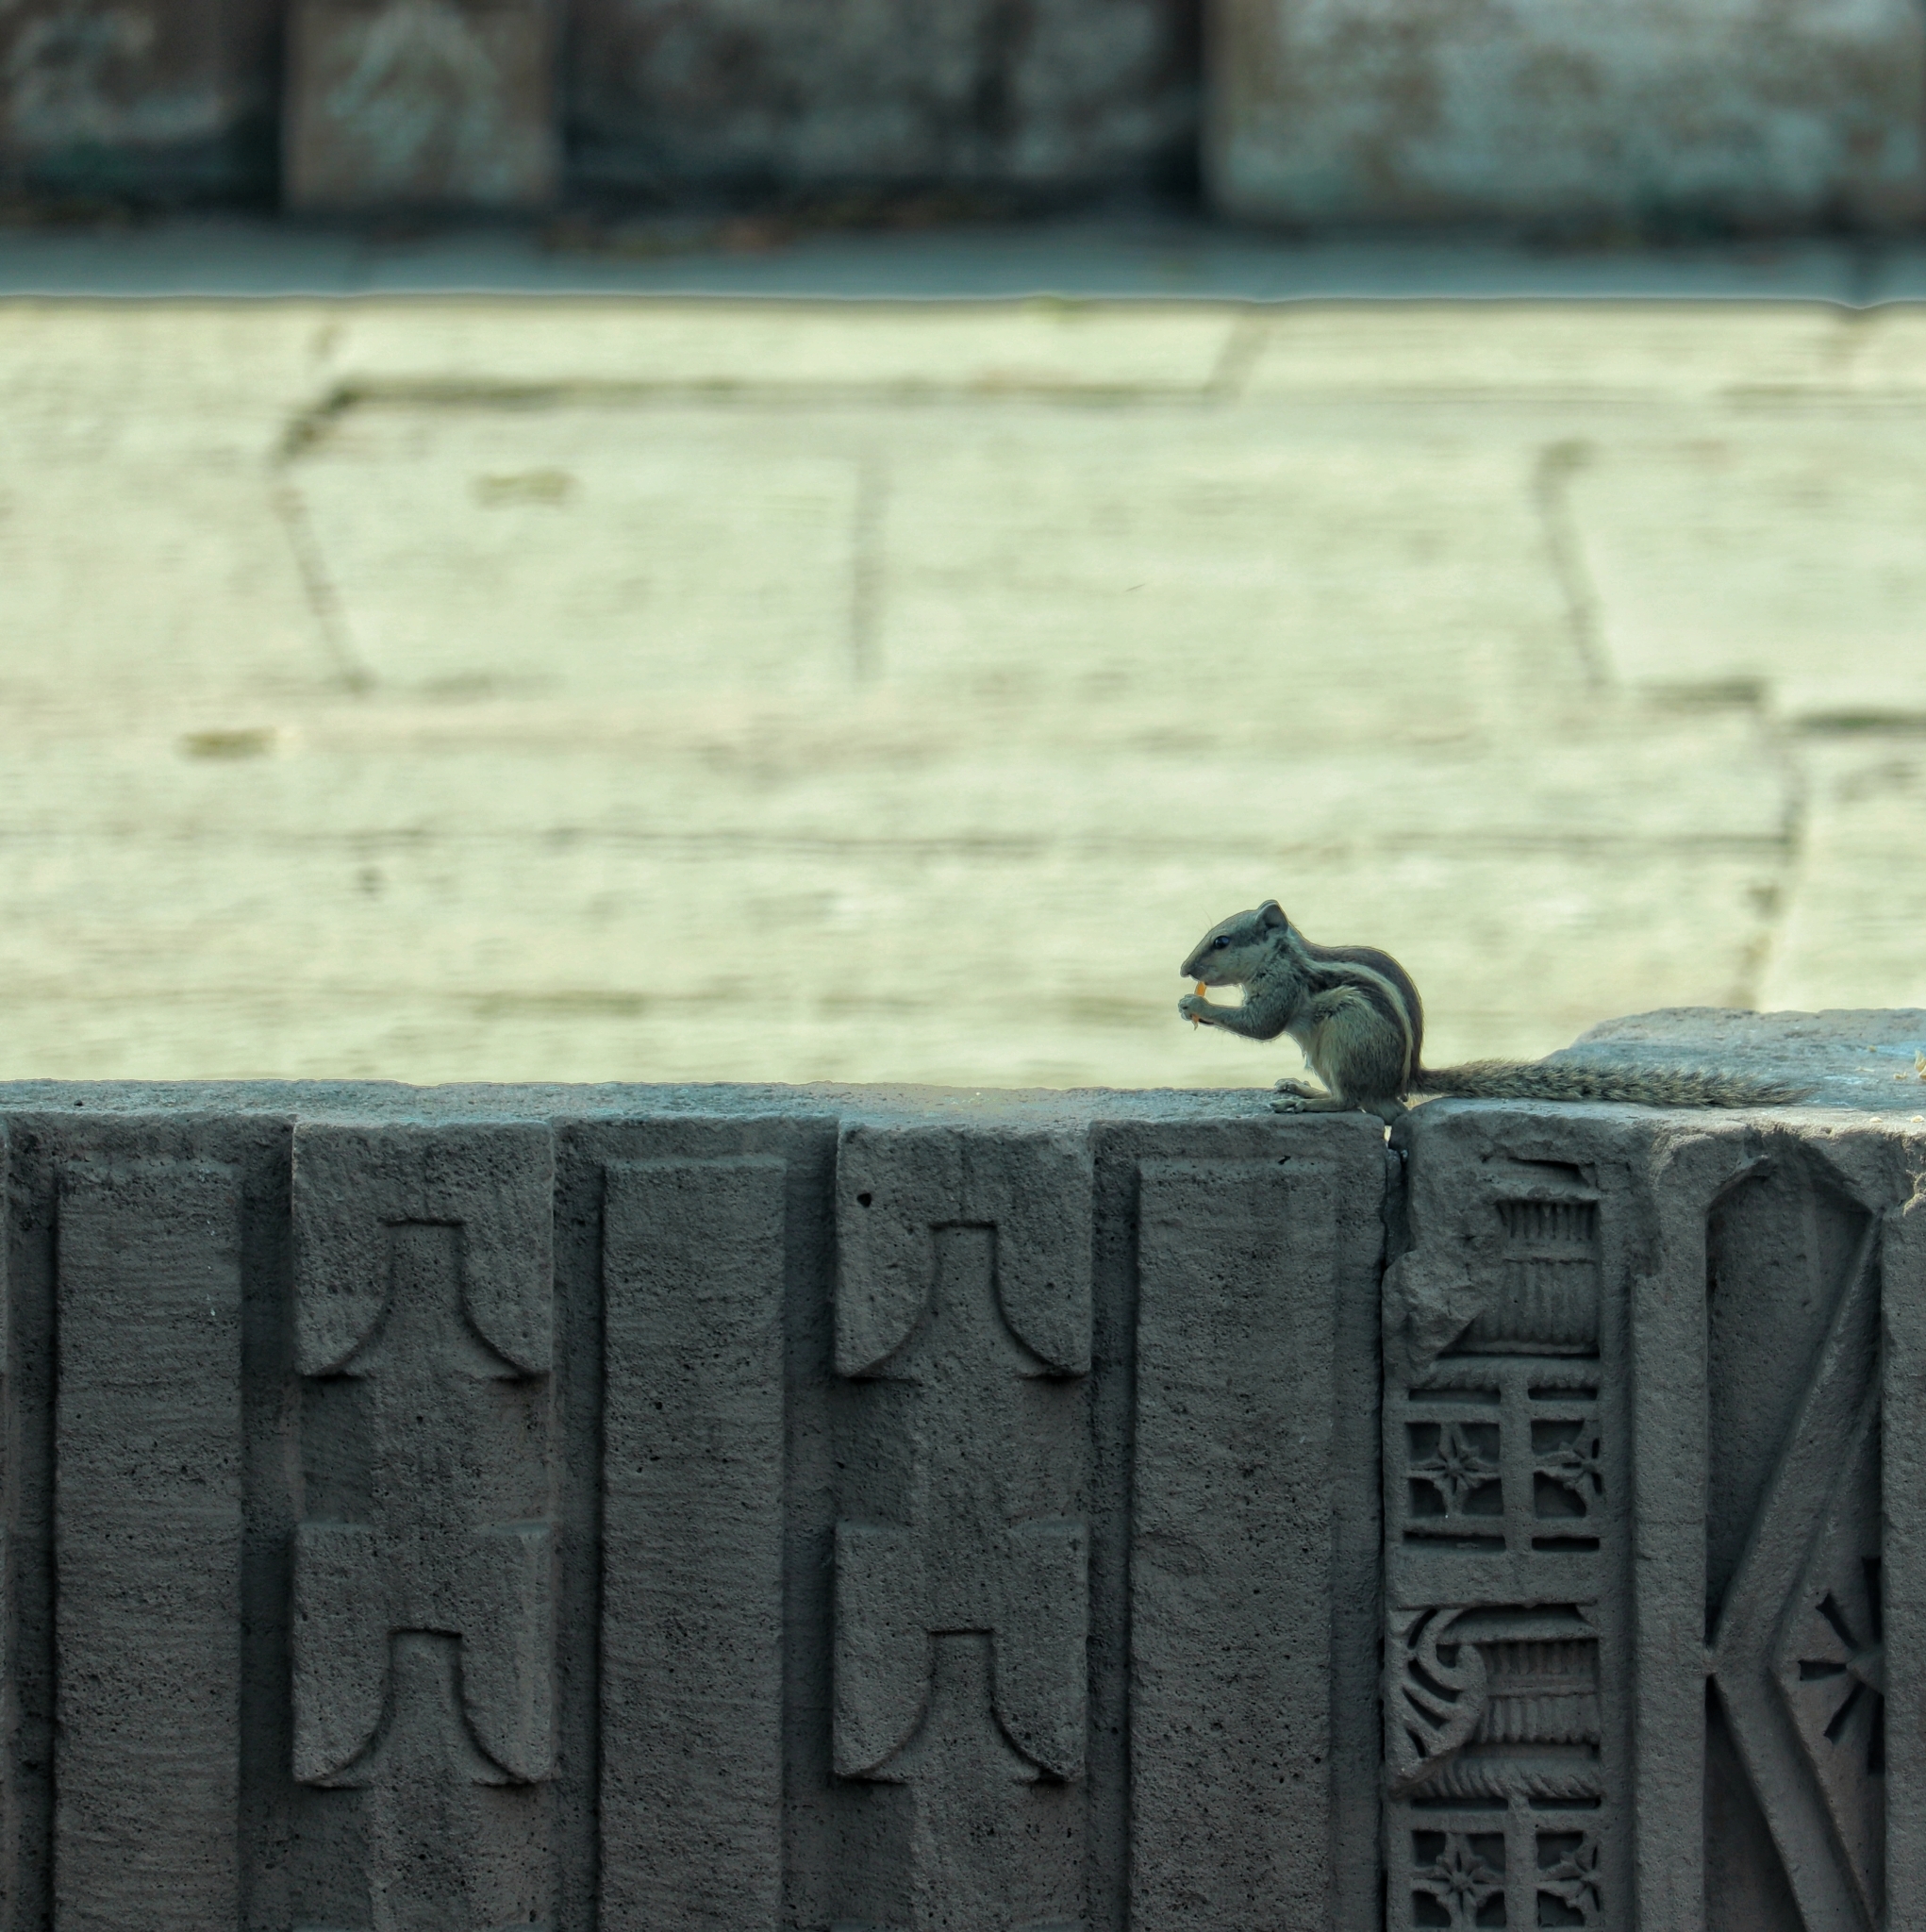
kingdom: Animalia
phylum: Chordata
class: Mammalia
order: Rodentia
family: Sciuridae
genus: Funambulus
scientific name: Funambulus pennantii
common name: Northern palm squirrel
